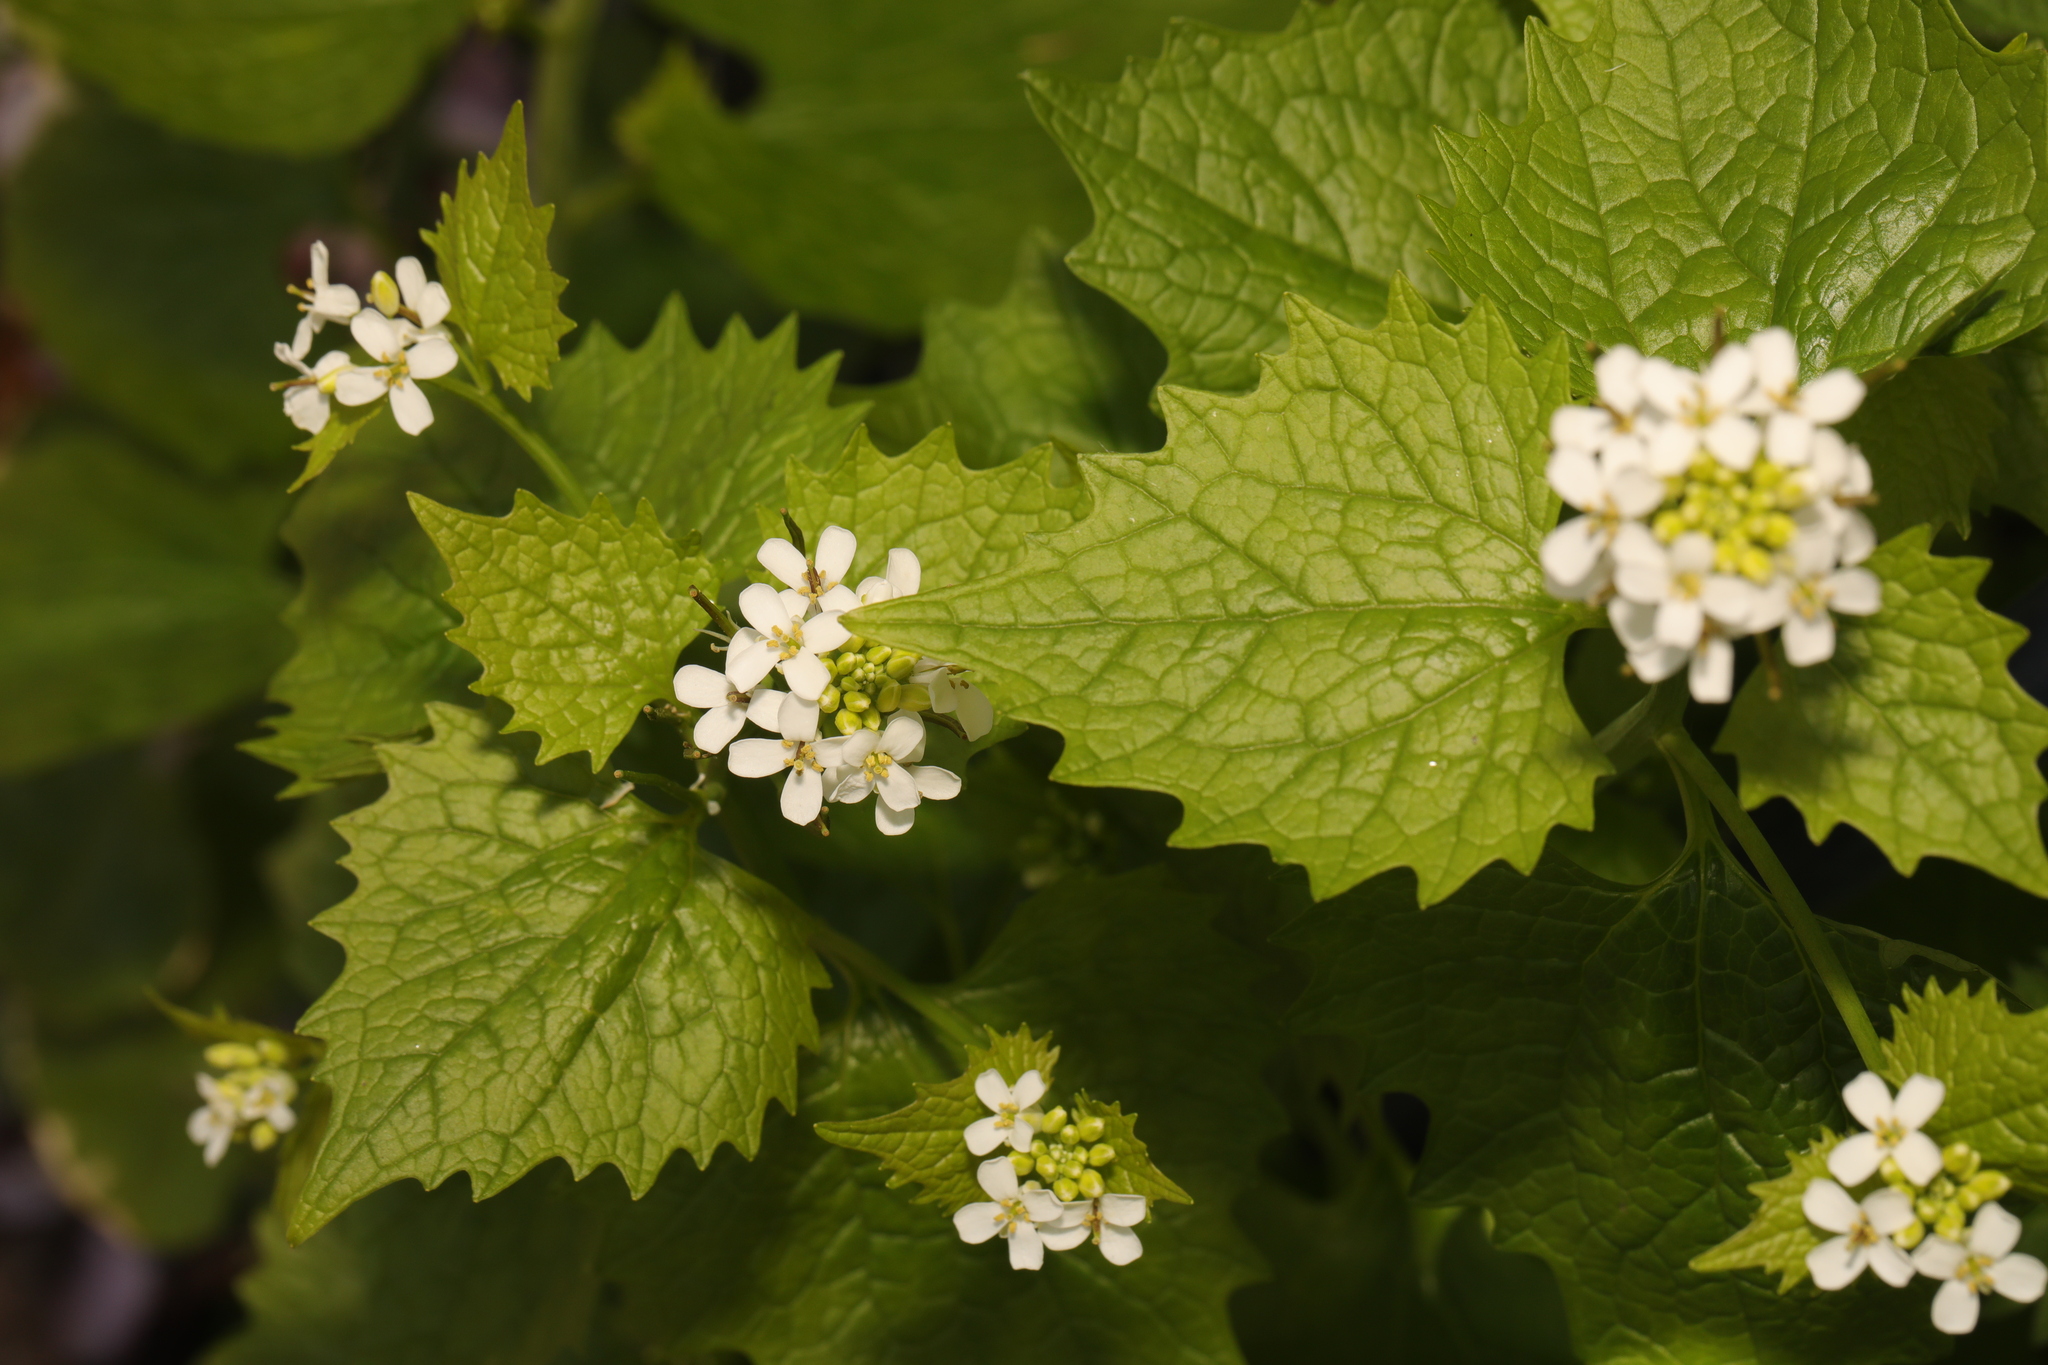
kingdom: Plantae
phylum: Tracheophyta
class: Magnoliopsida
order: Brassicales
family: Brassicaceae
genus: Alliaria
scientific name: Alliaria petiolata
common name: Garlic mustard
